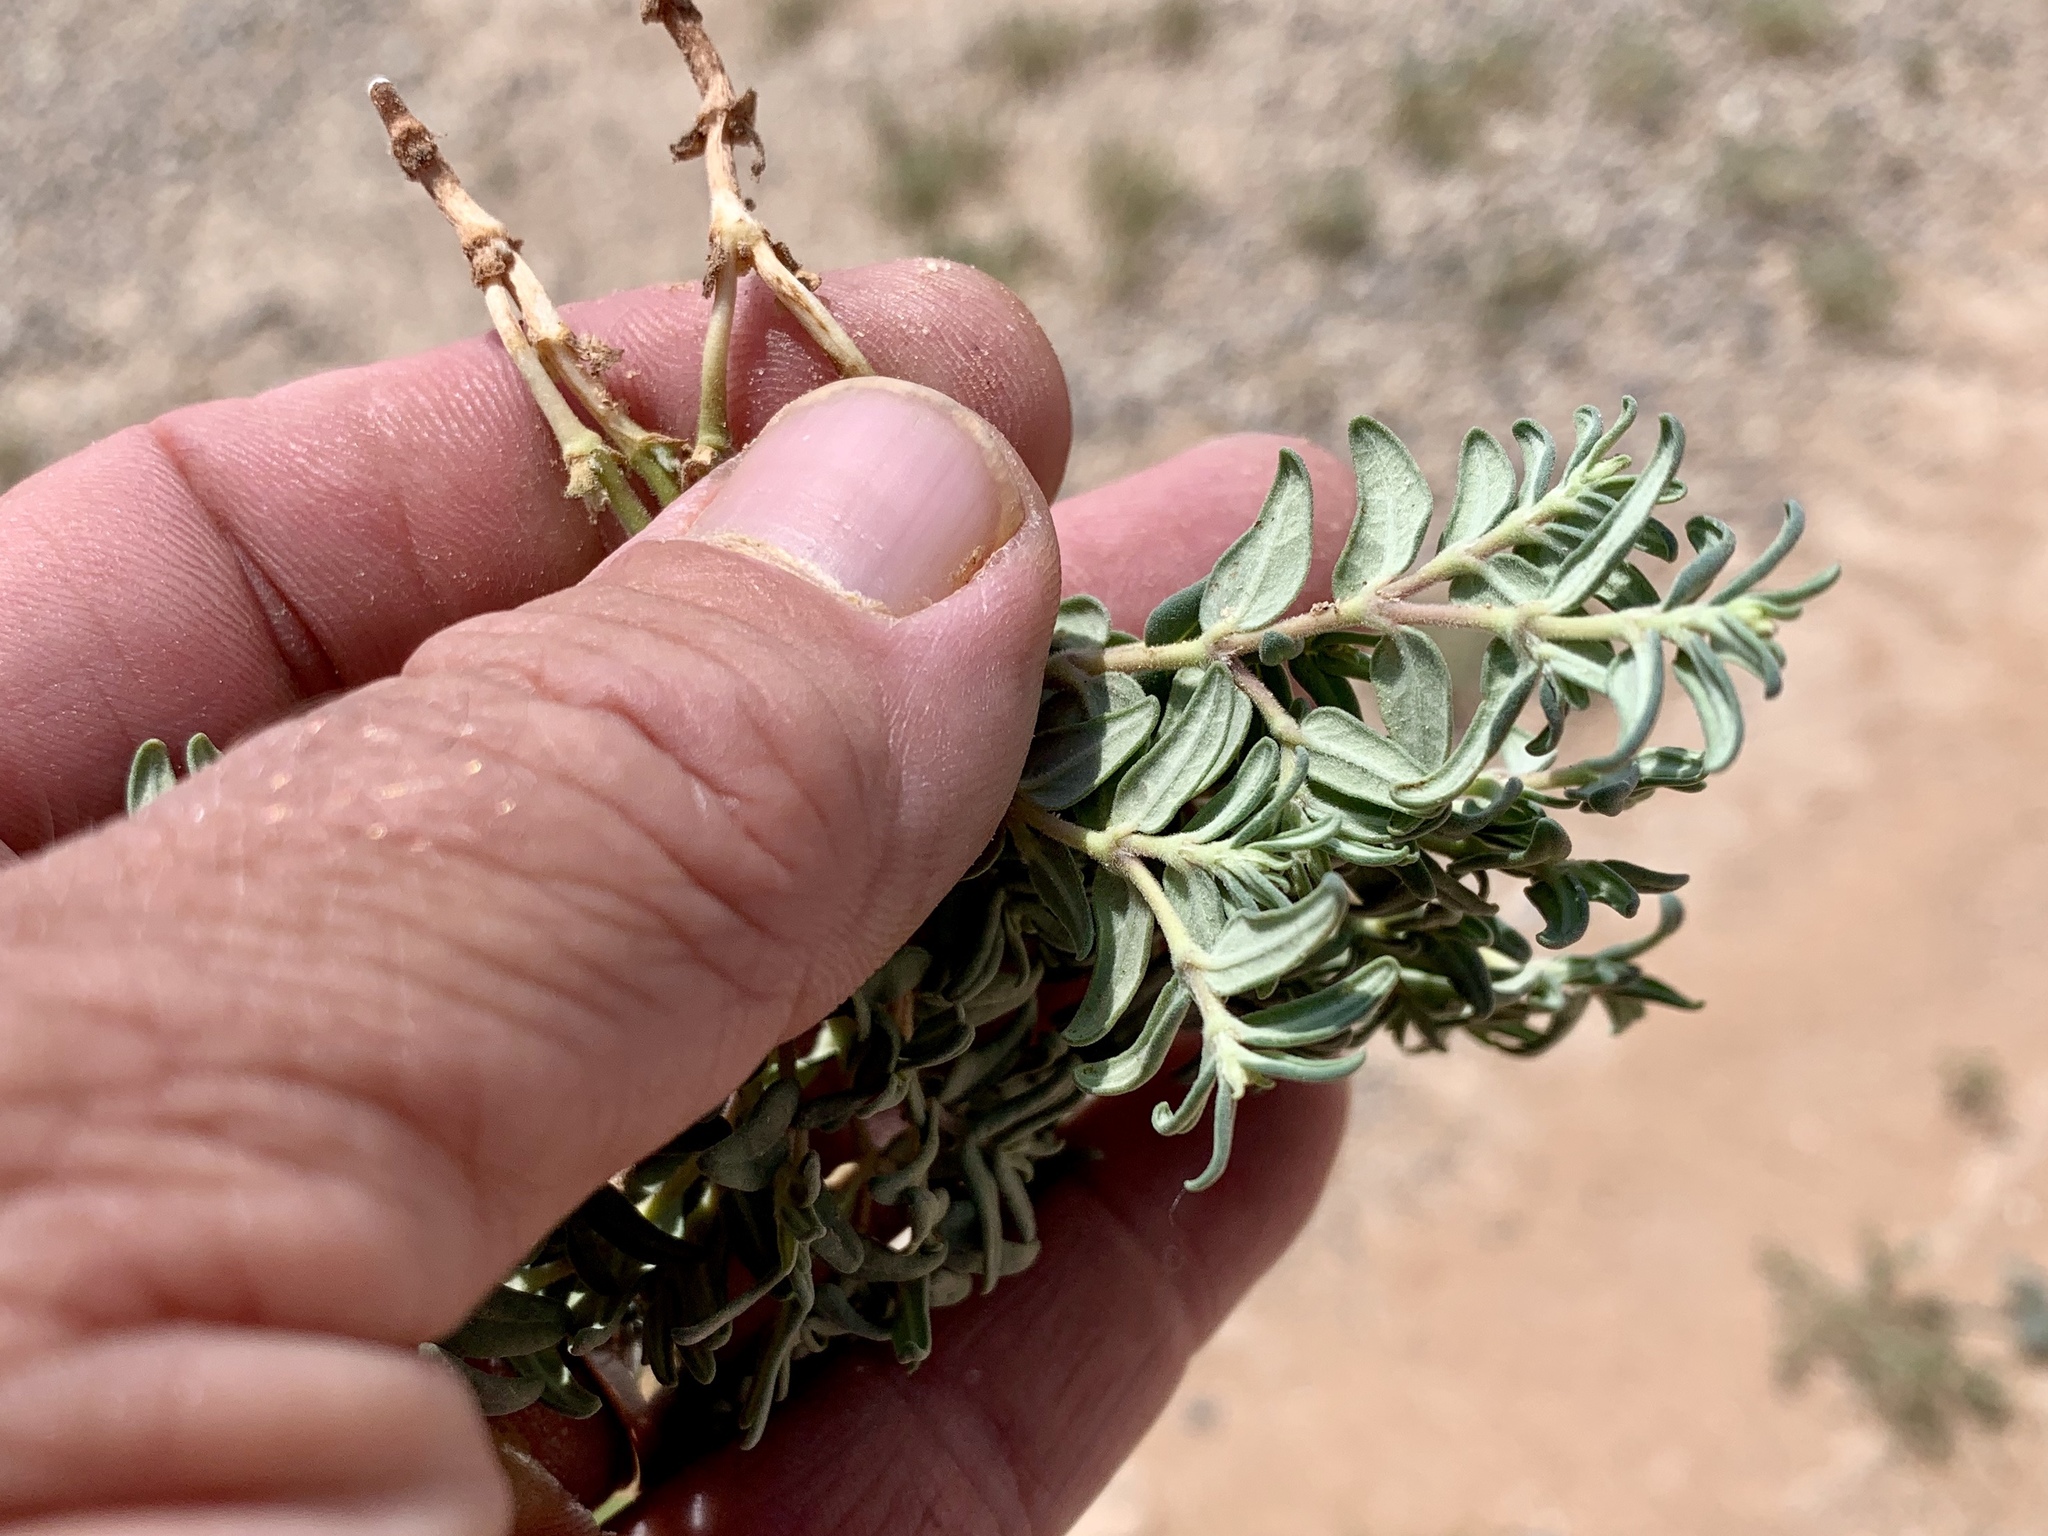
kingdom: Plantae
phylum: Tracheophyta
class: Magnoliopsida
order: Malpighiales
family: Euphorbiaceae
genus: Euphorbia
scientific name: Euphorbia lata
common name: Hoary euphorbia
